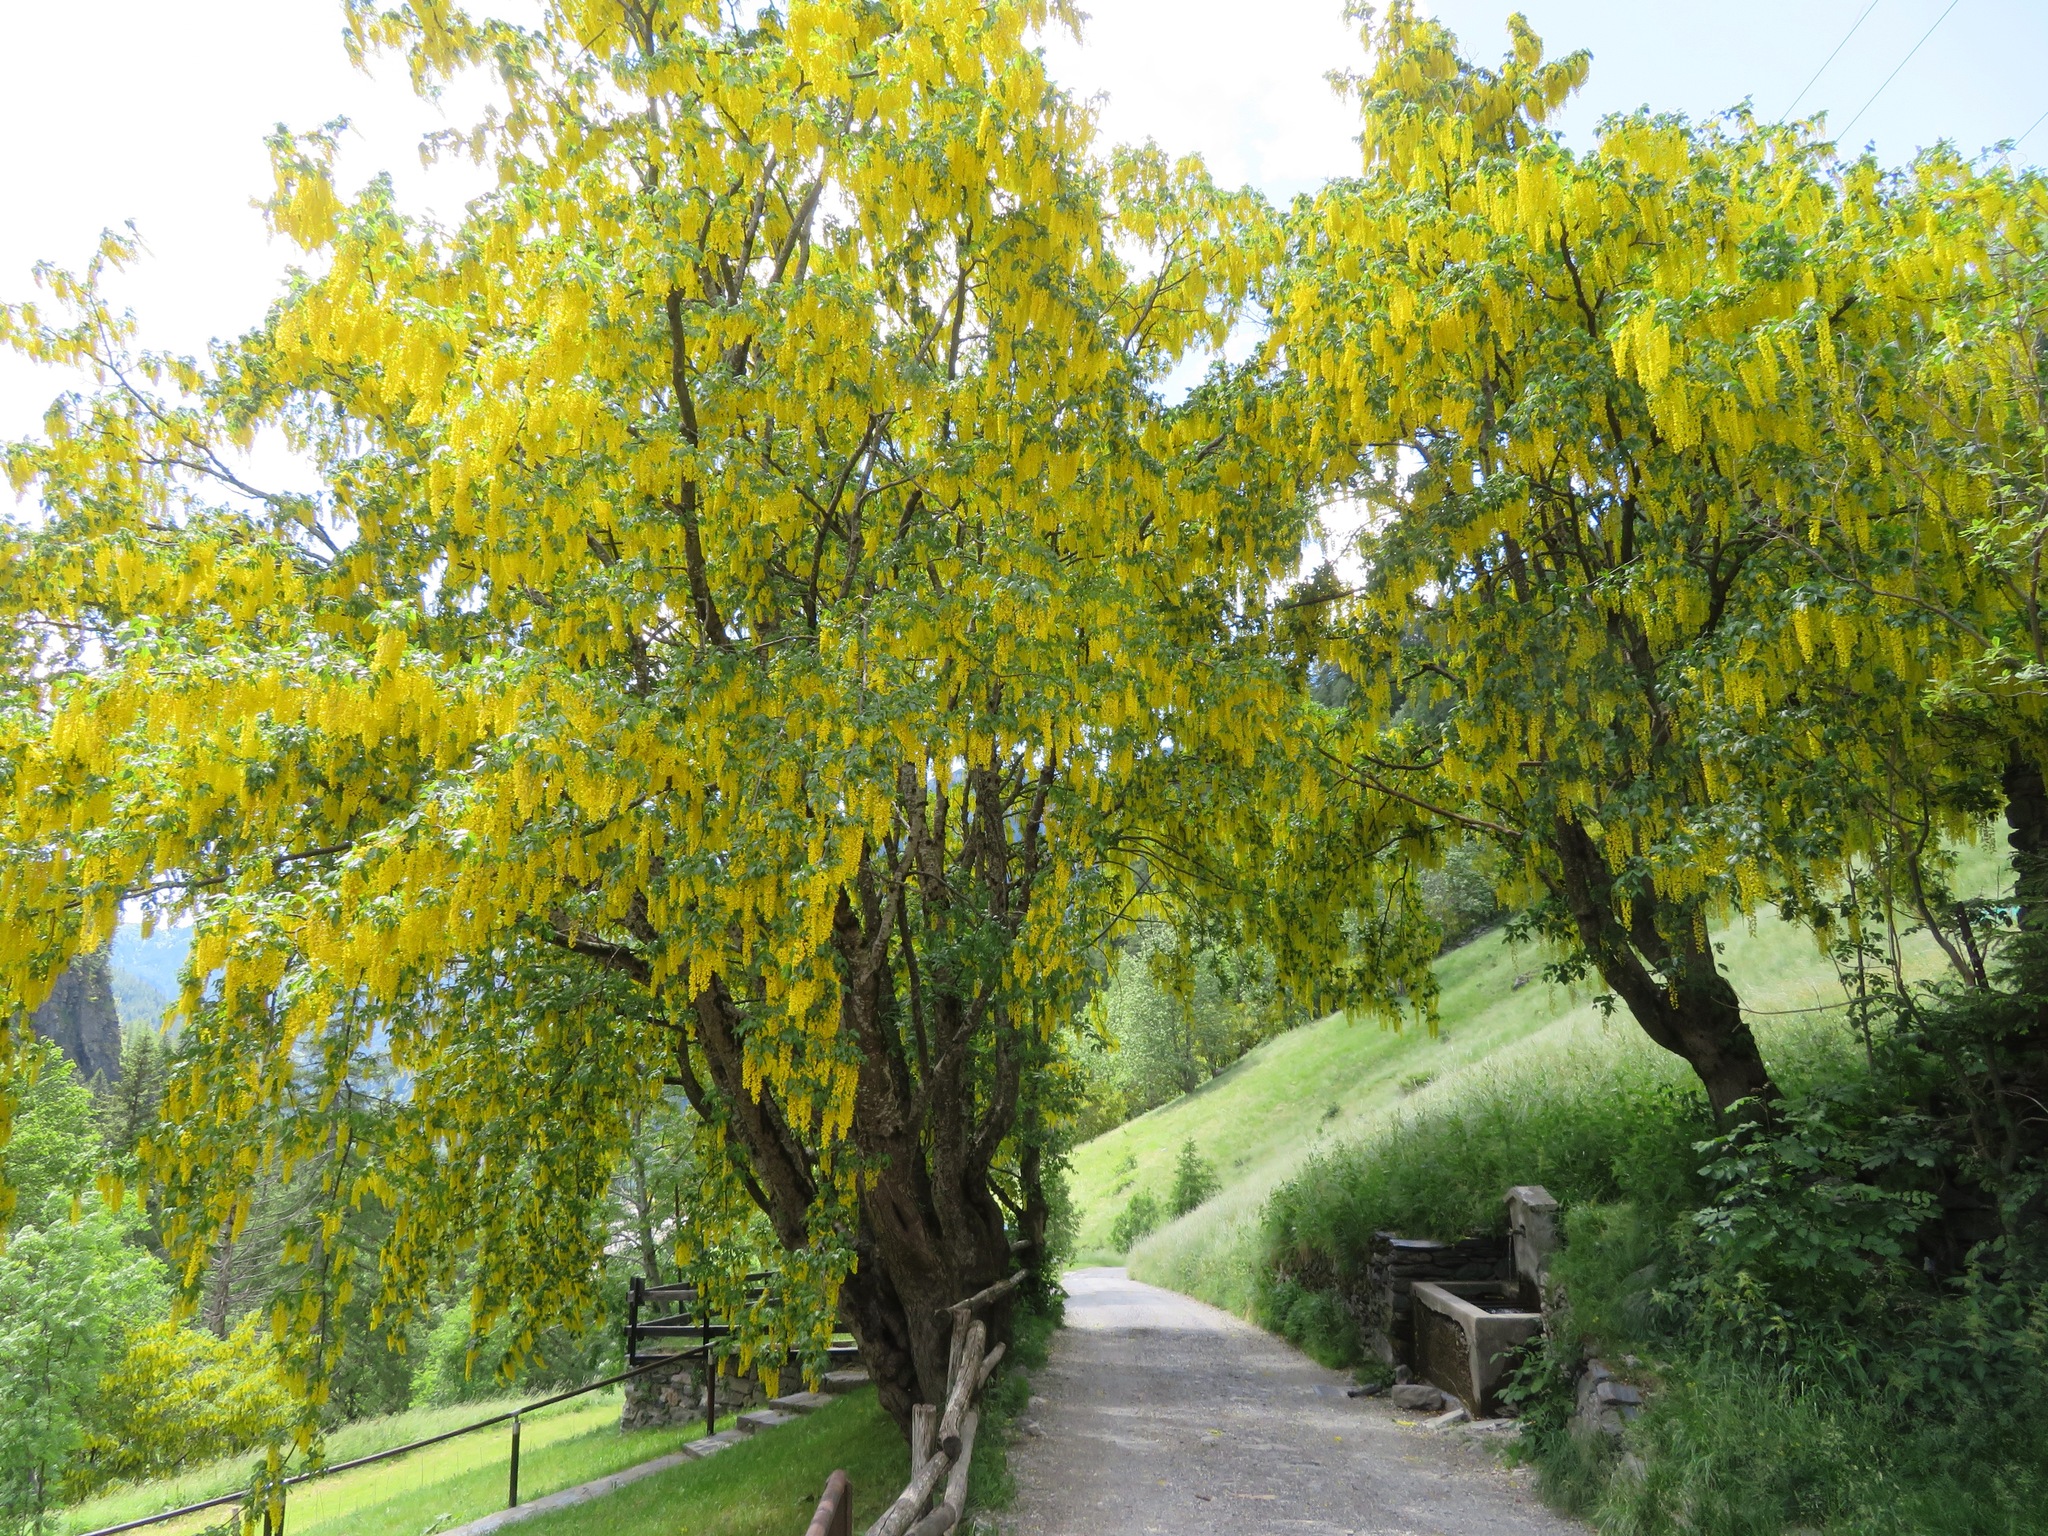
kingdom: Plantae
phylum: Tracheophyta
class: Magnoliopsida
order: Fabales
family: Fabaceae
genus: Laburnum
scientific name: Laburnum alpinum
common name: Scottish laburnum
